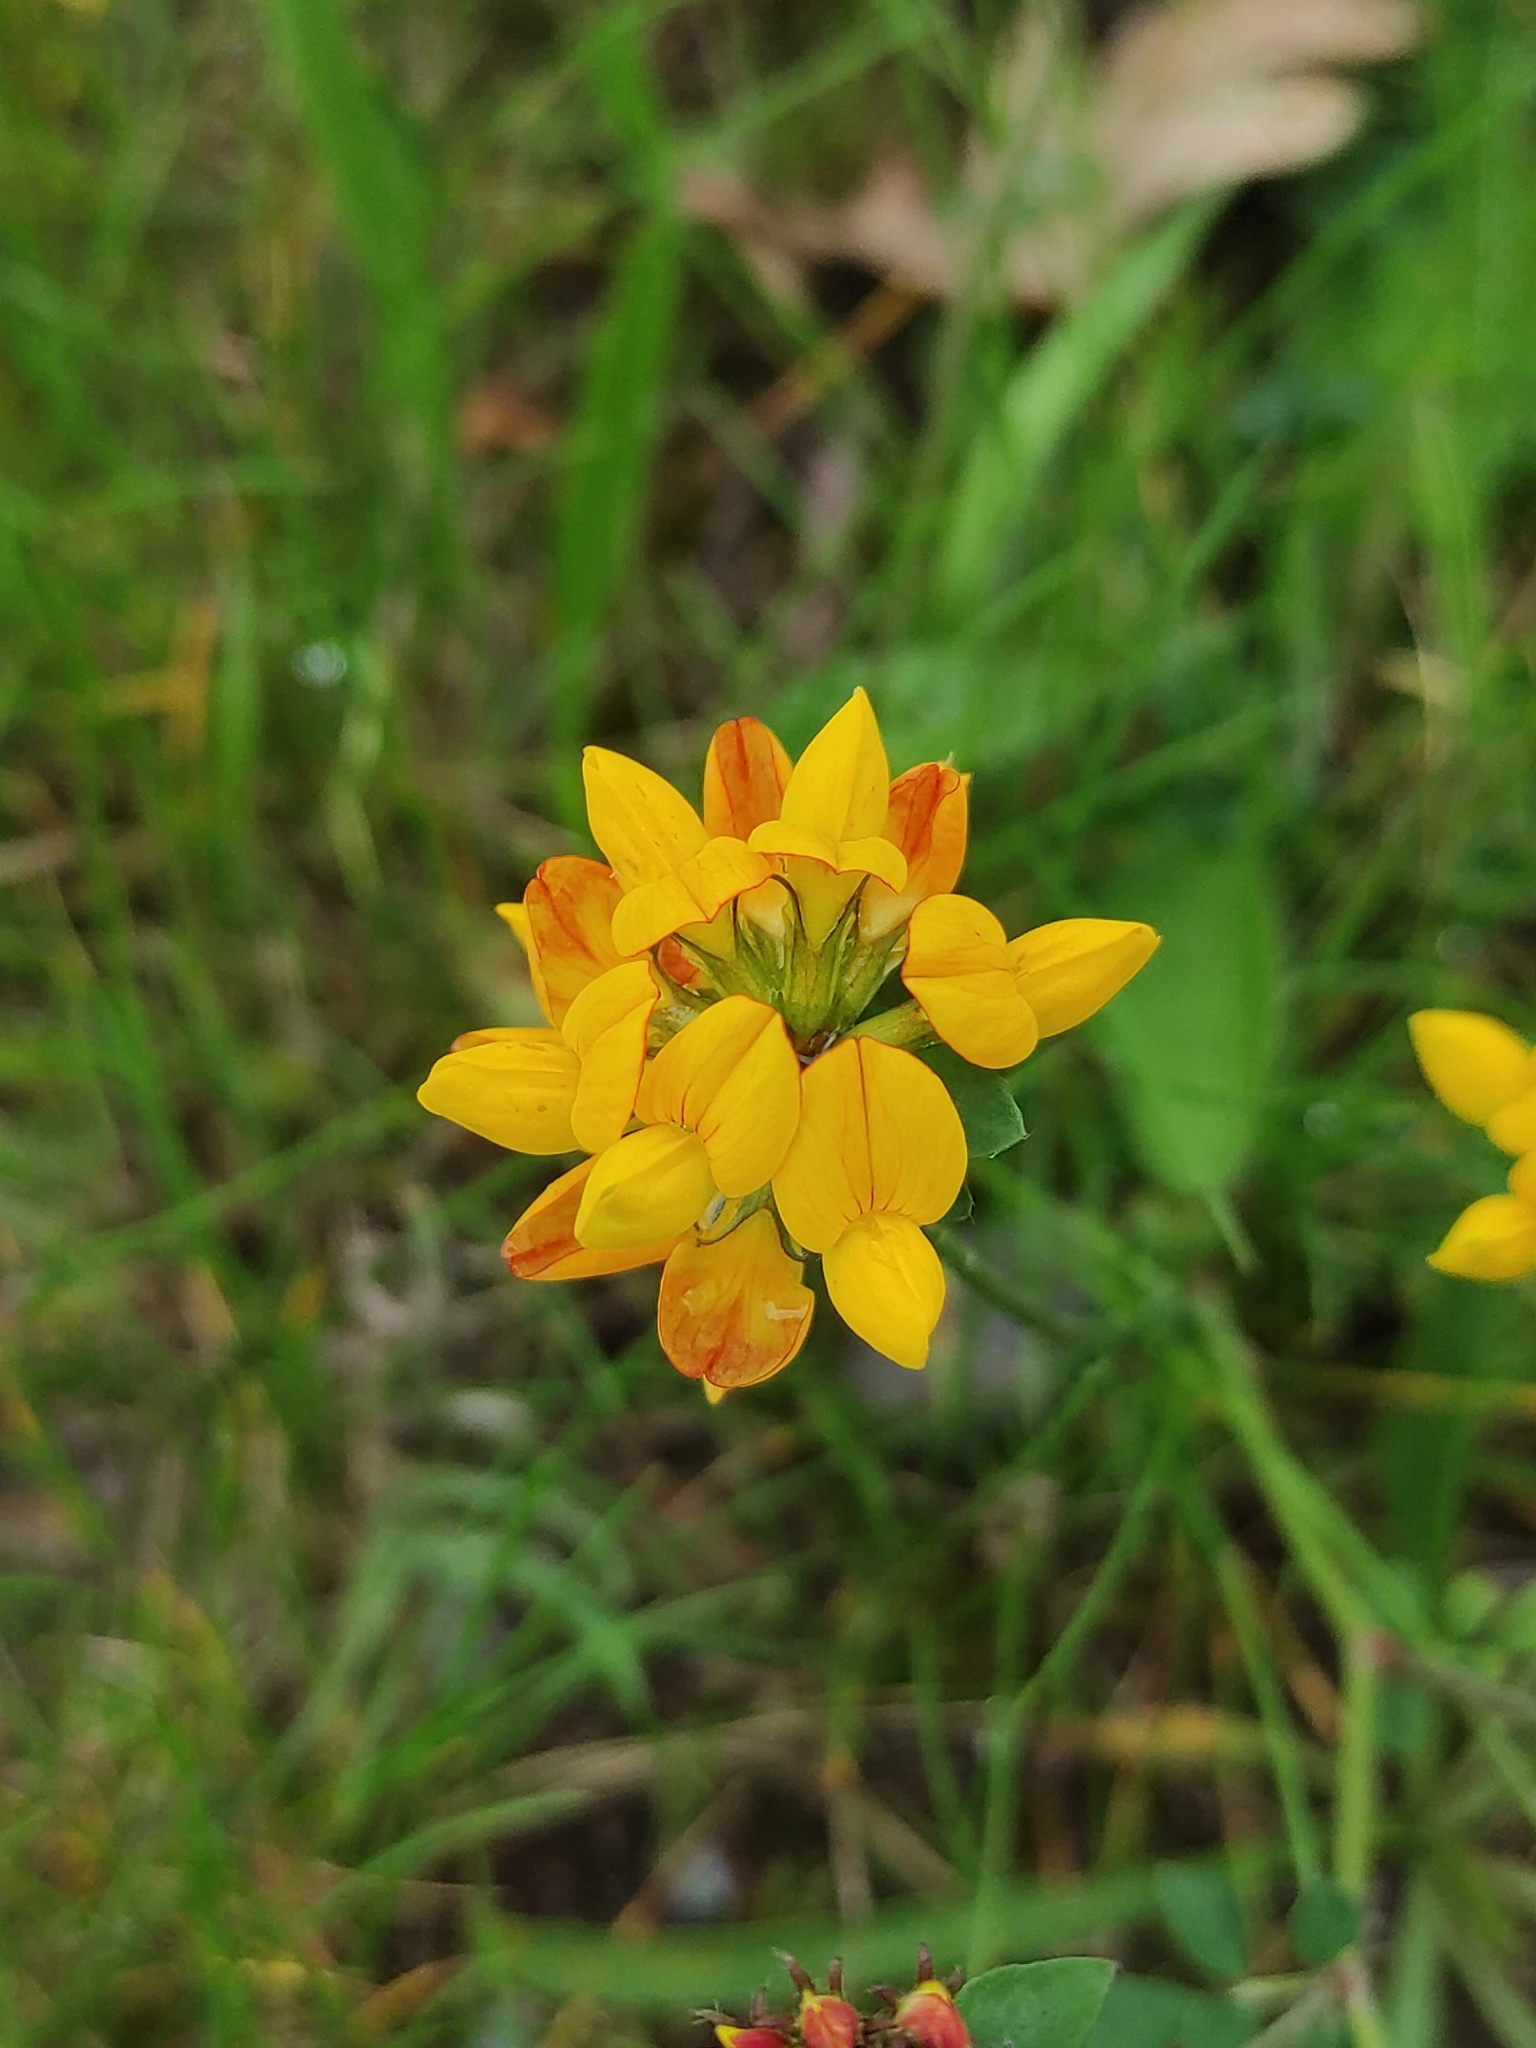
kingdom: Plantae
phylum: Tracheophyta
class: Magnoliopsida
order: Fabales
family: Fabaceae
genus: Lotus
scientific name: Lotus corniculatus
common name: Common bird's-foot-trefoil
